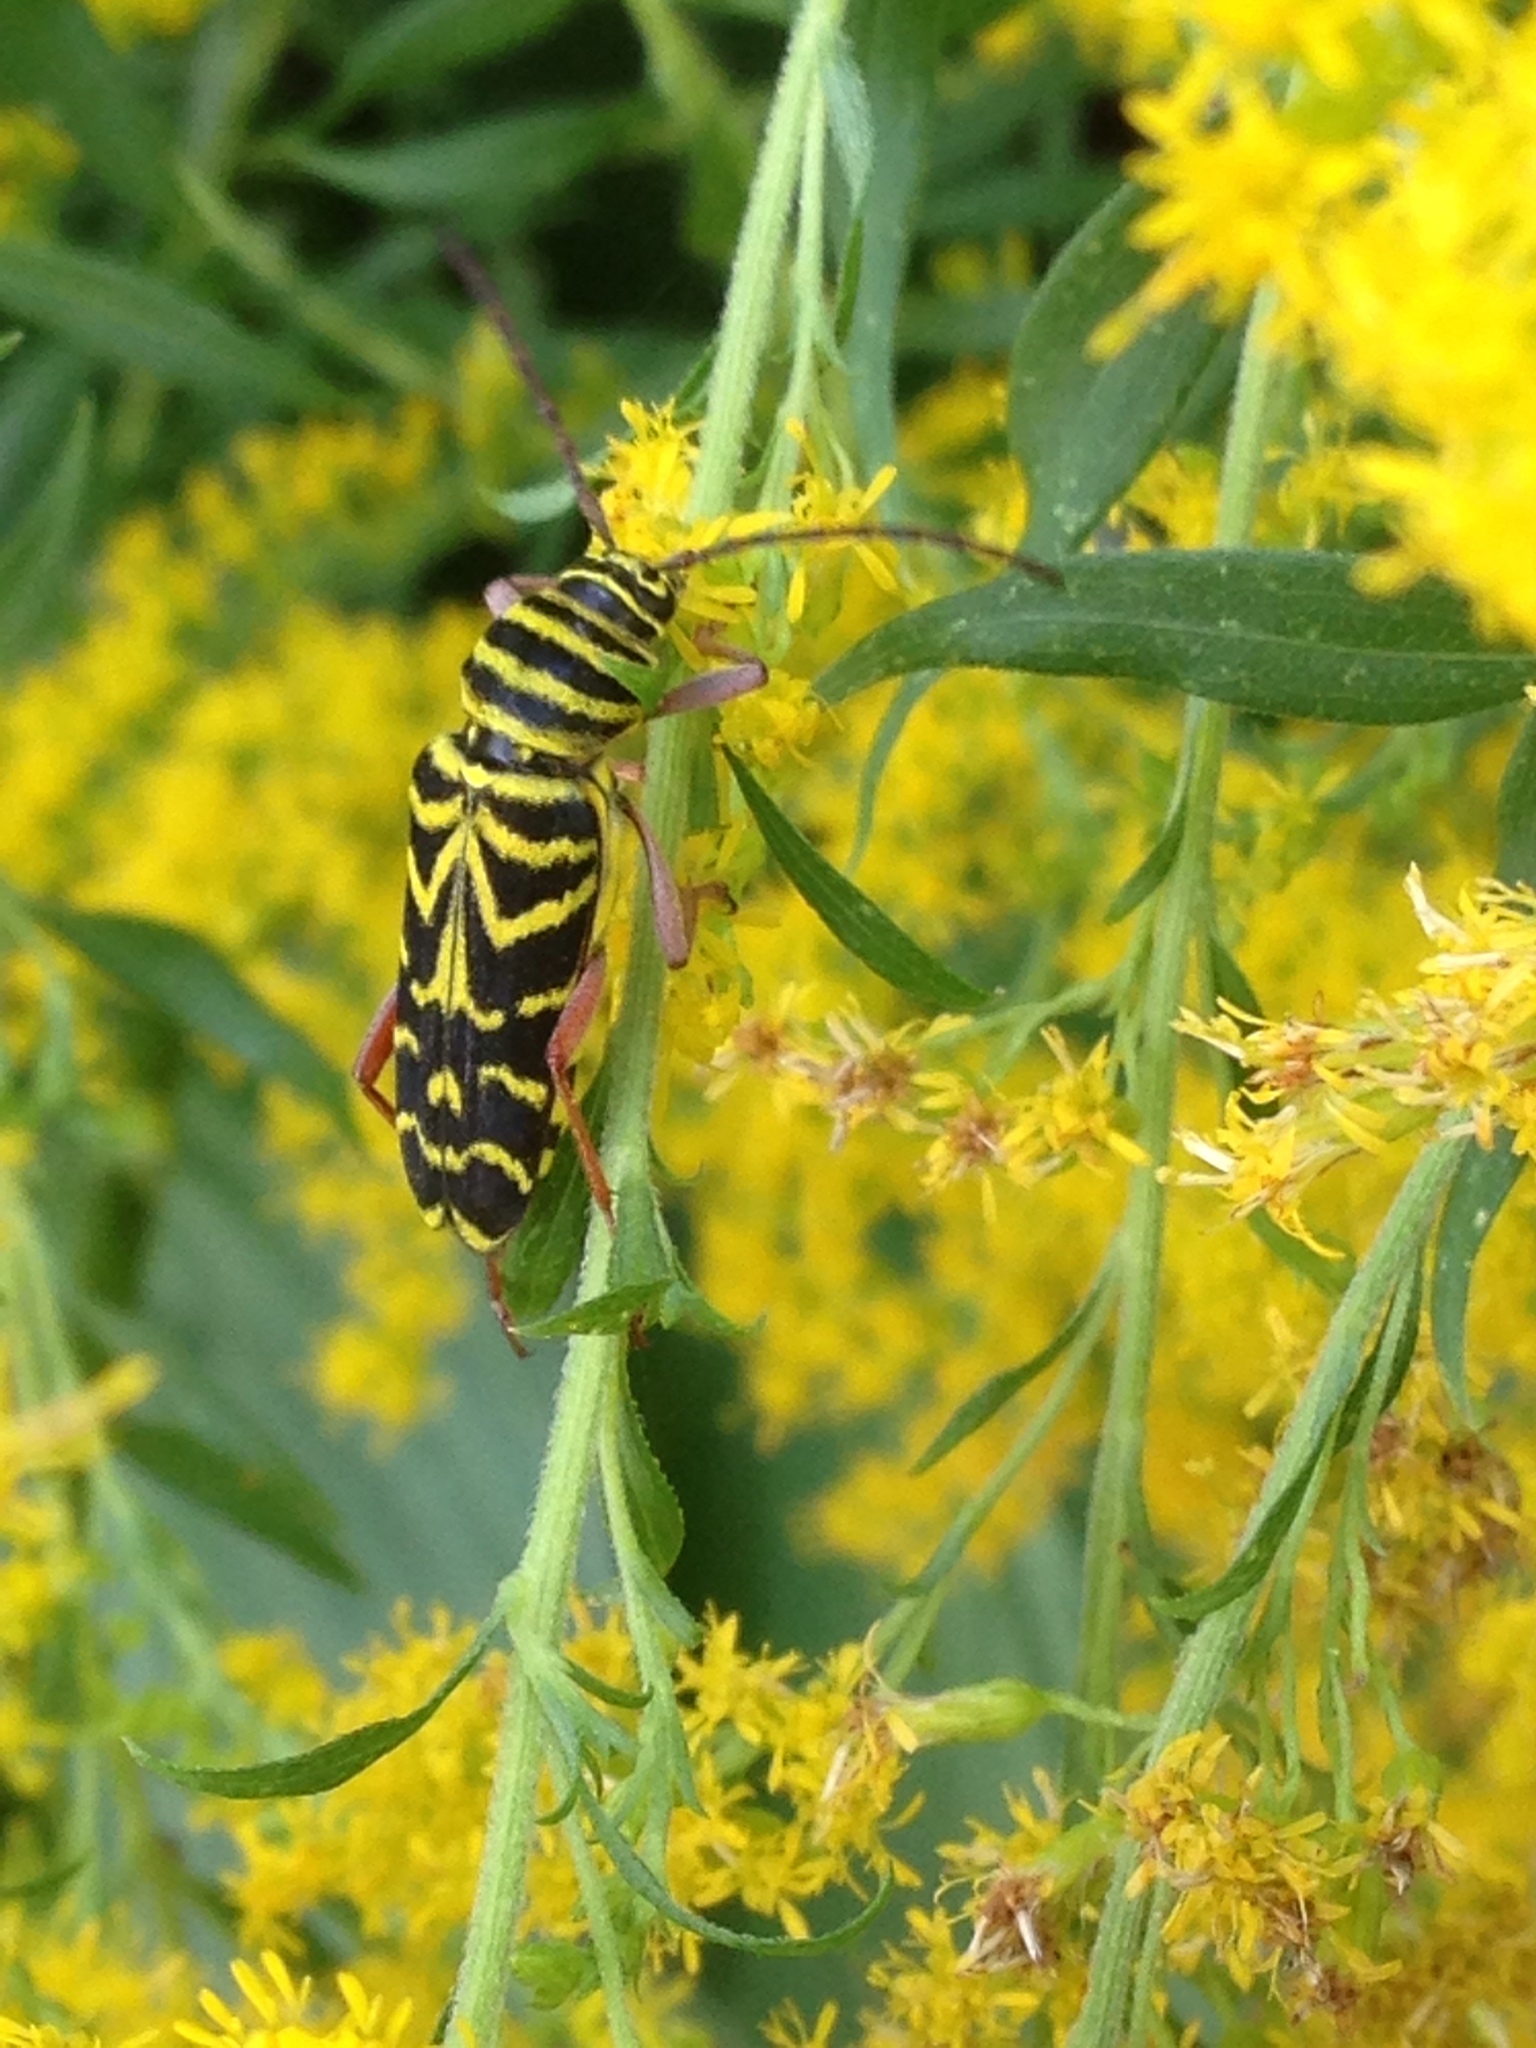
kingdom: Animalia
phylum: Arthropoda
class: Insecta
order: Coleoptera
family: Cerambycidae
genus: Megacyllene
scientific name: Megacyllene robiniae
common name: Locust borer
